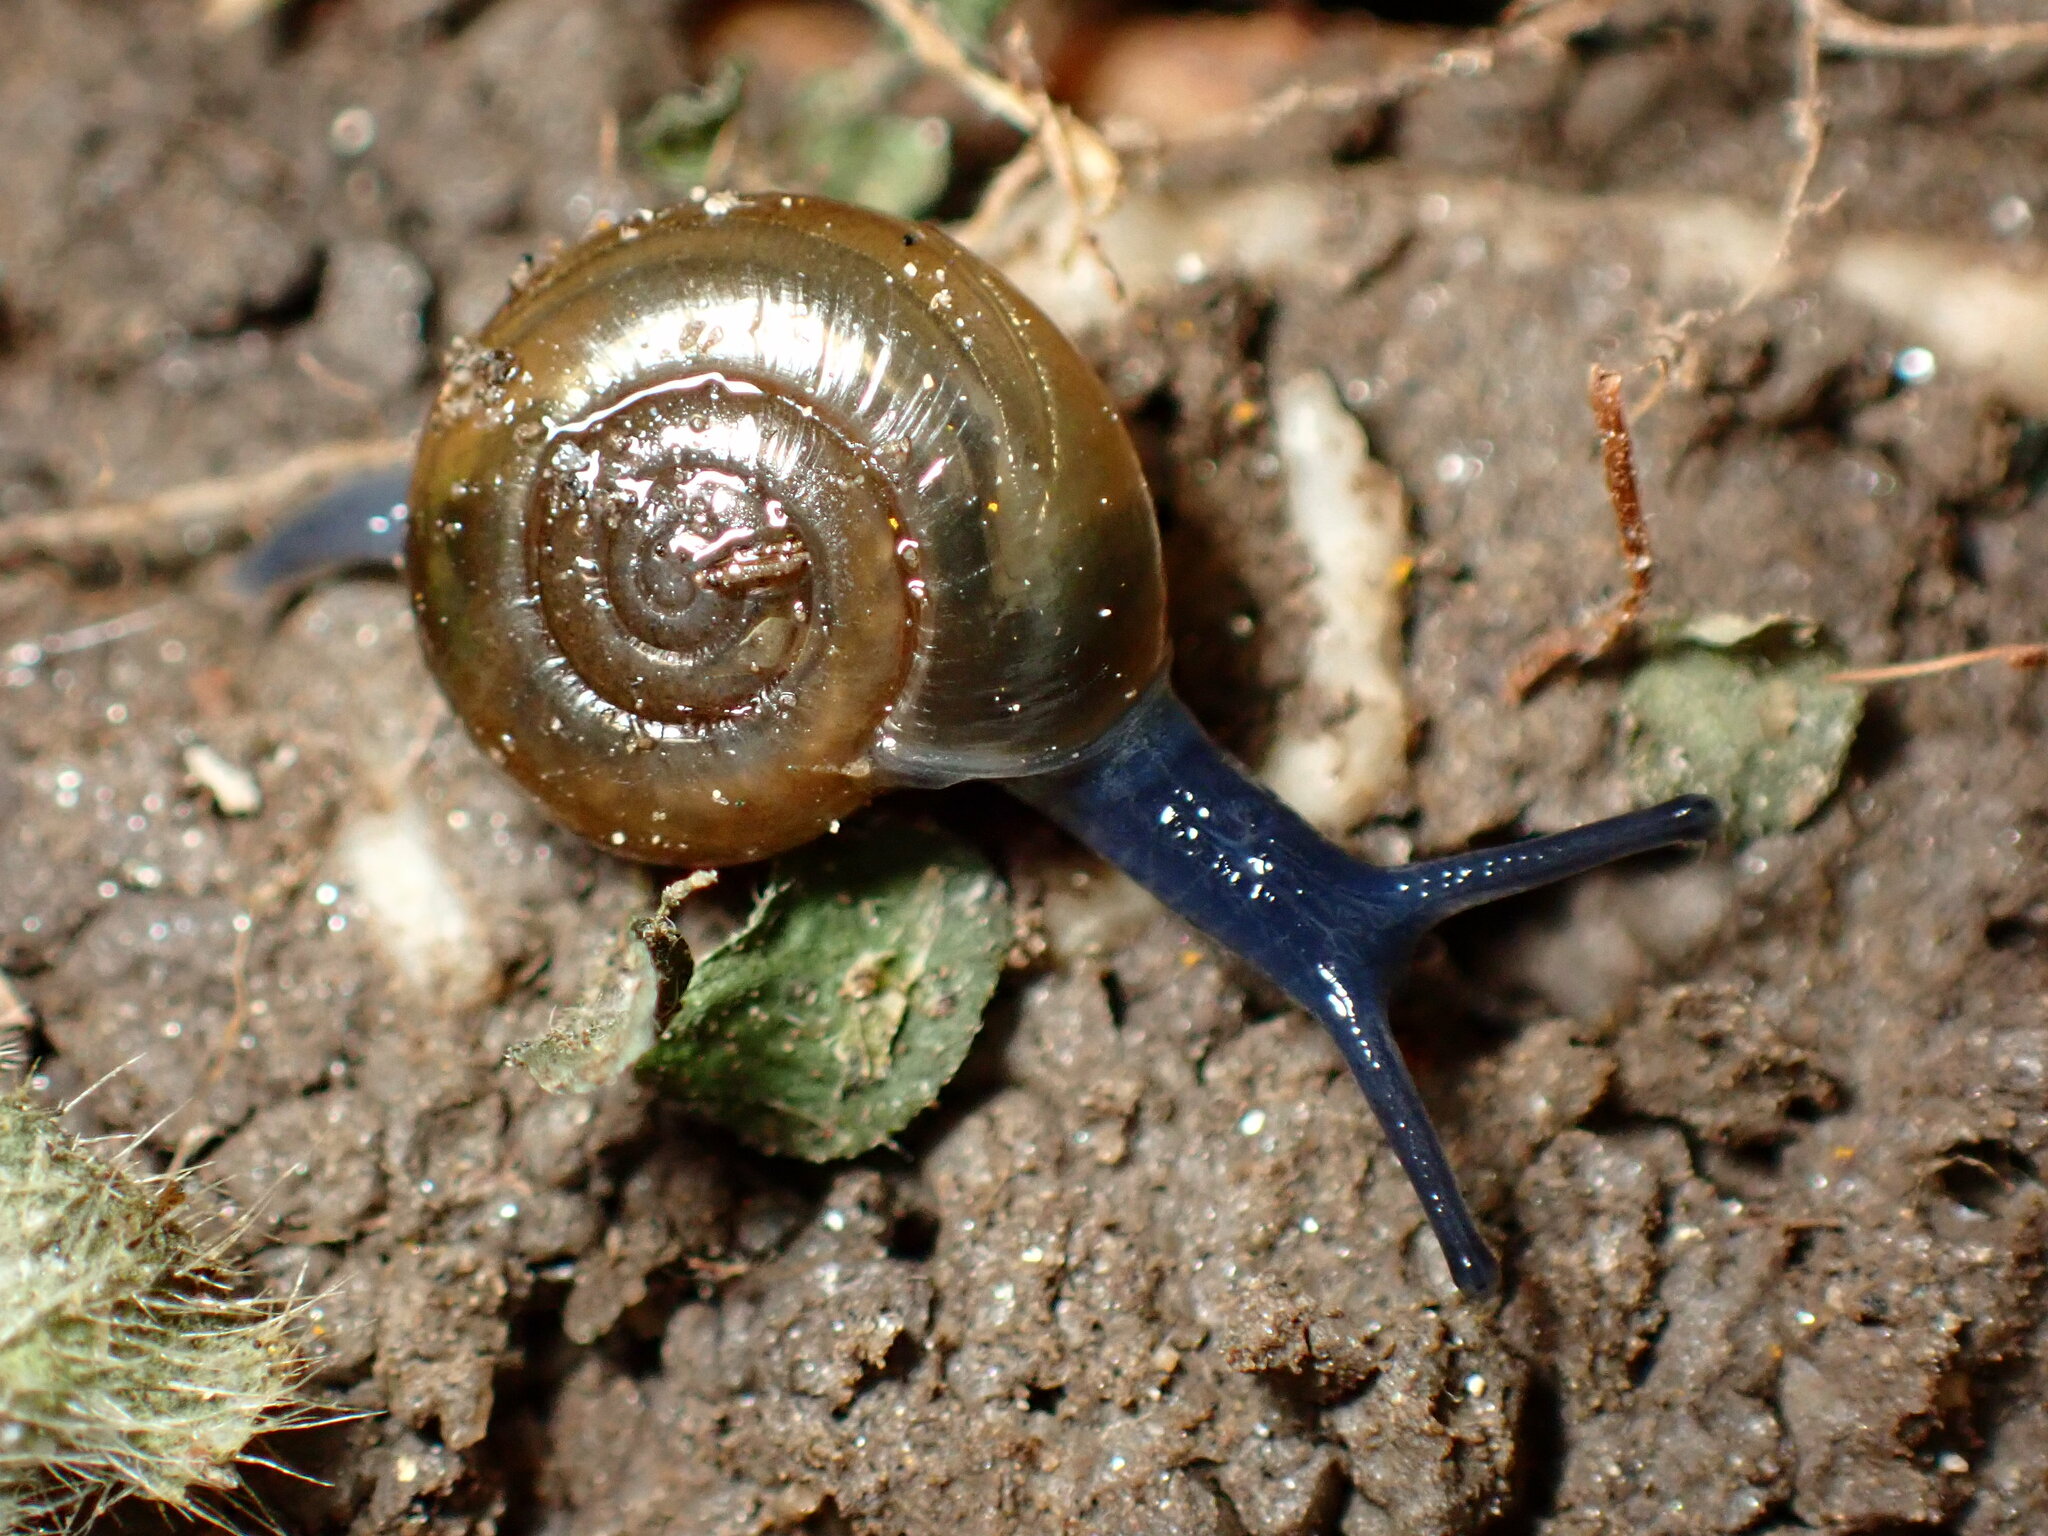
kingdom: Animalia
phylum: Mollusca
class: Gastropoda
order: Stylommatophora
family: Oxychilidae
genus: Oxychilus
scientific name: Oxychilus
